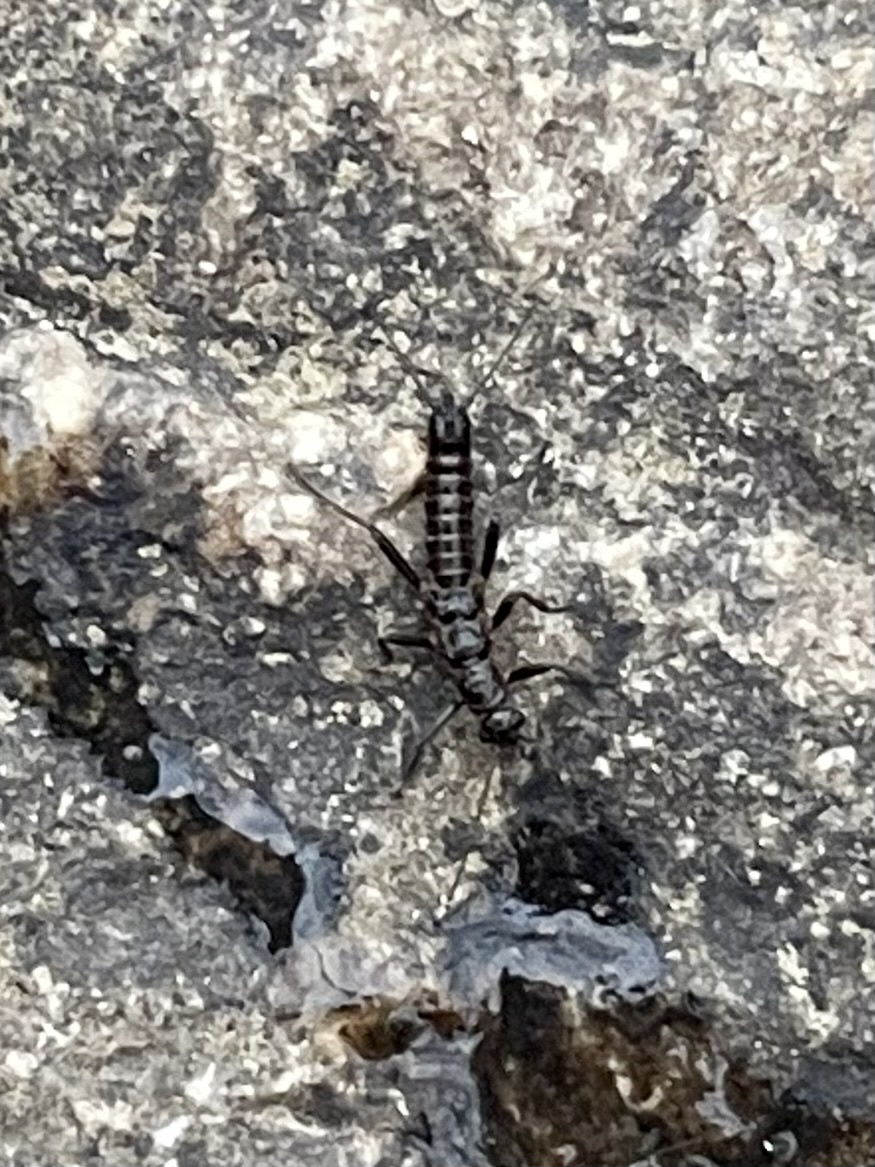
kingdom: Animalia
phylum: Arthropoda
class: Insecta
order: Plecoptera
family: Capniidae
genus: Allocapnia
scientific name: Allocapnia vivipara
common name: Shortwing snowfly
